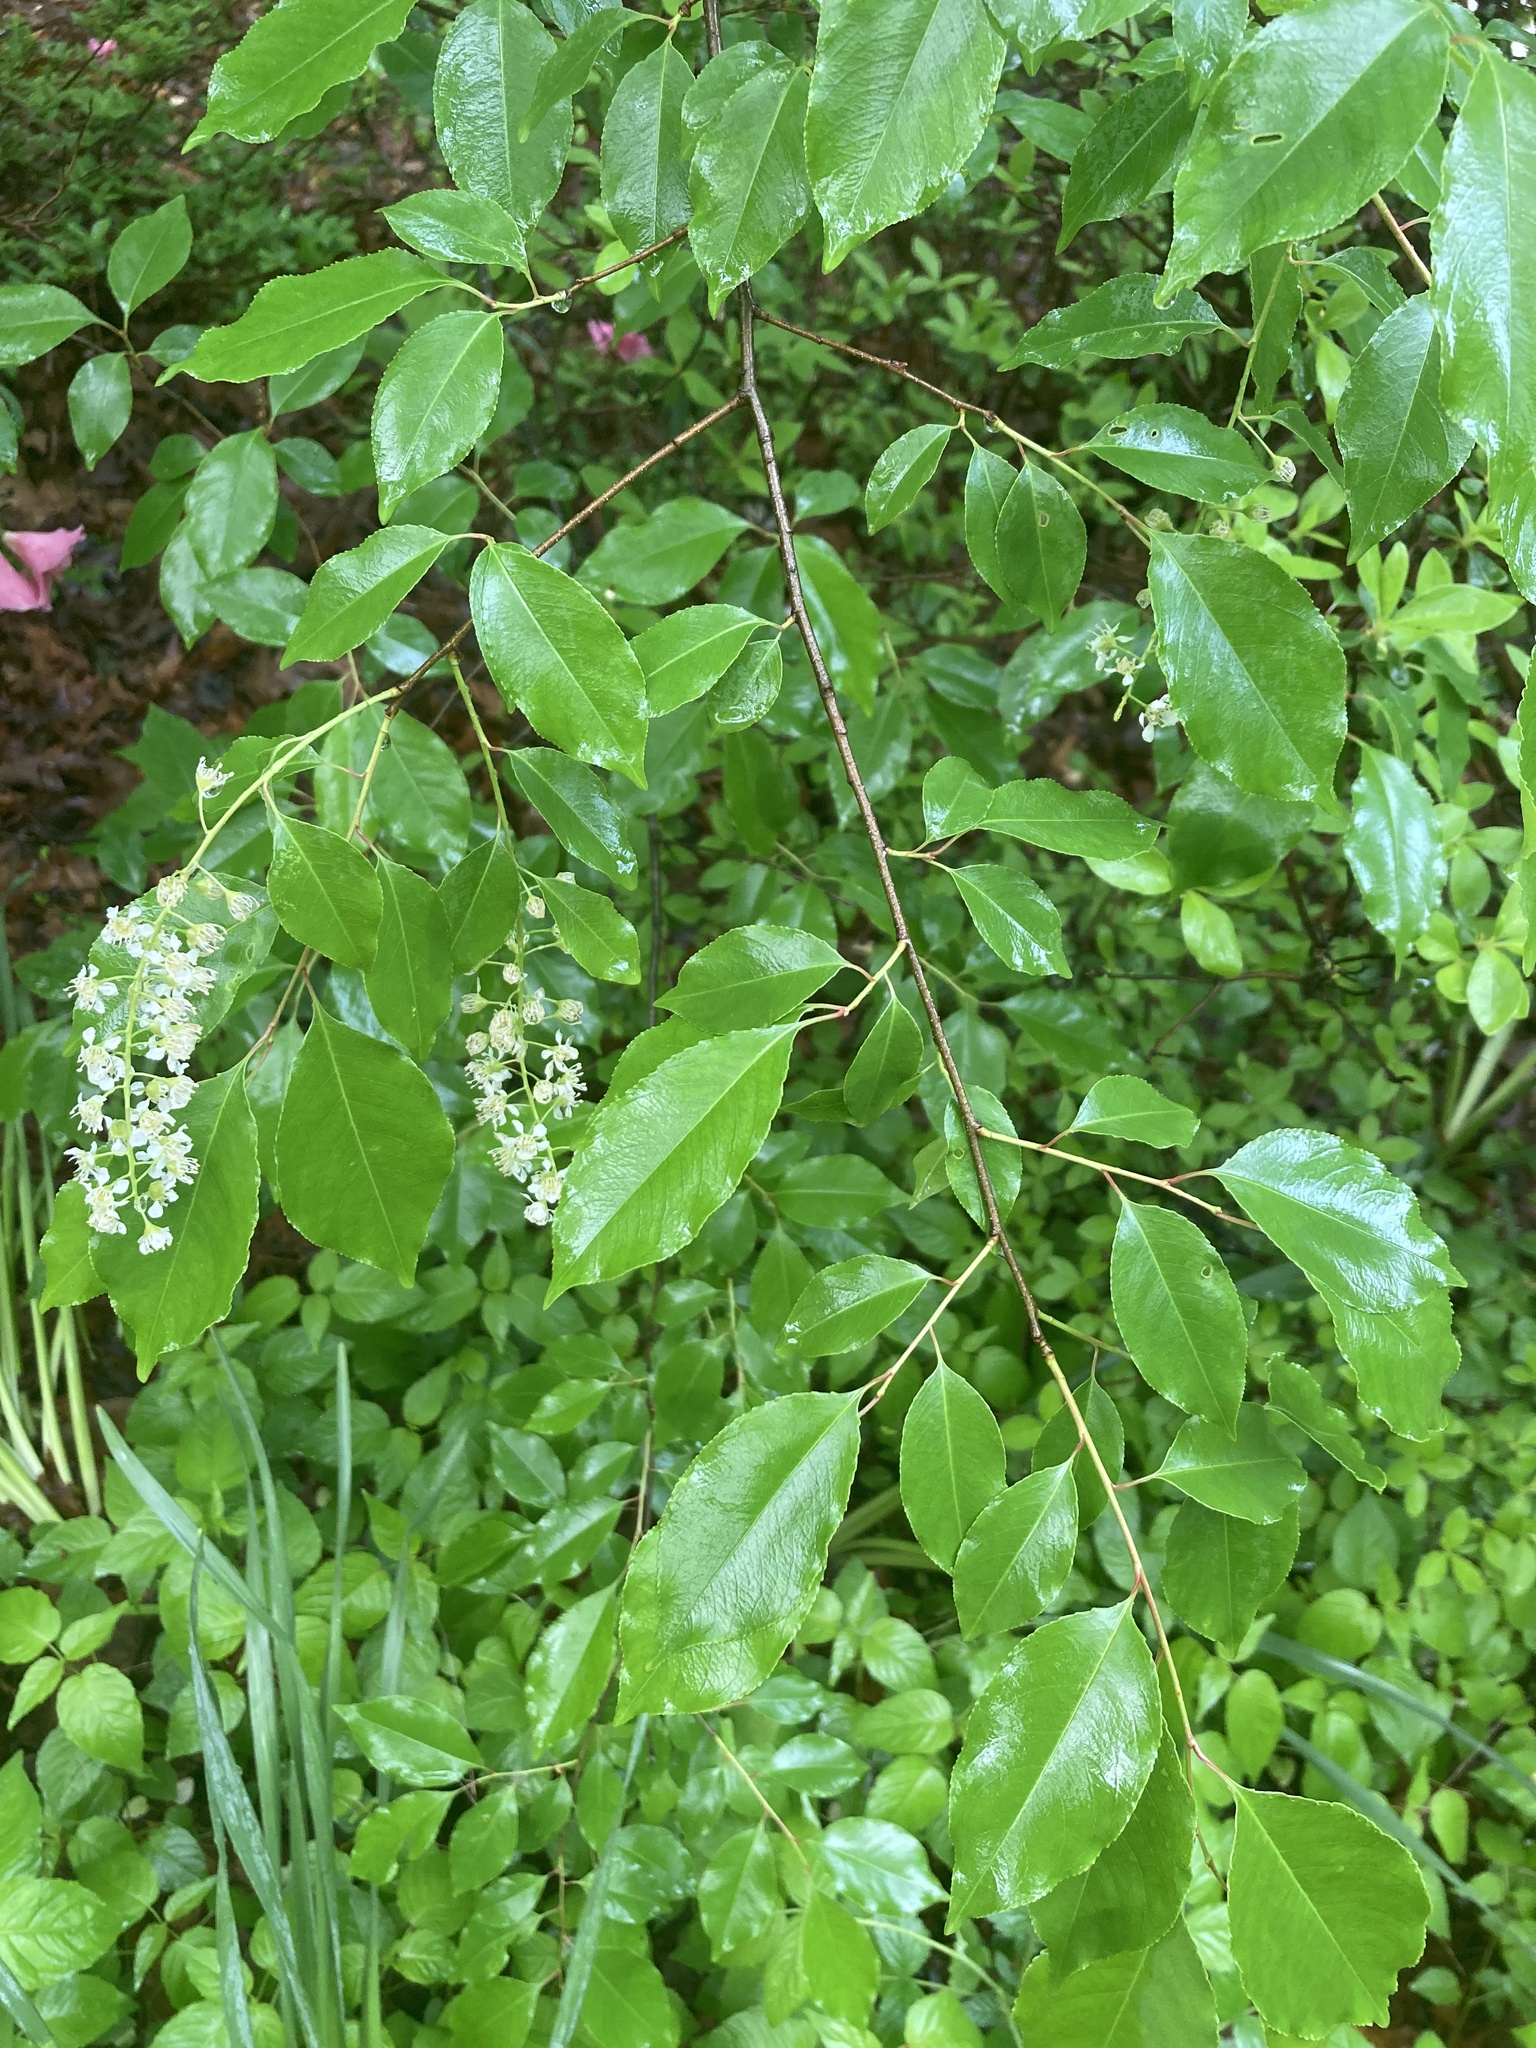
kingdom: Plantae
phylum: Tracheophyta
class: Magnoliopsida
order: Rosales
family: Rosaceae
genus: Prunus
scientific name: Prunus serotina
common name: Black cherry
